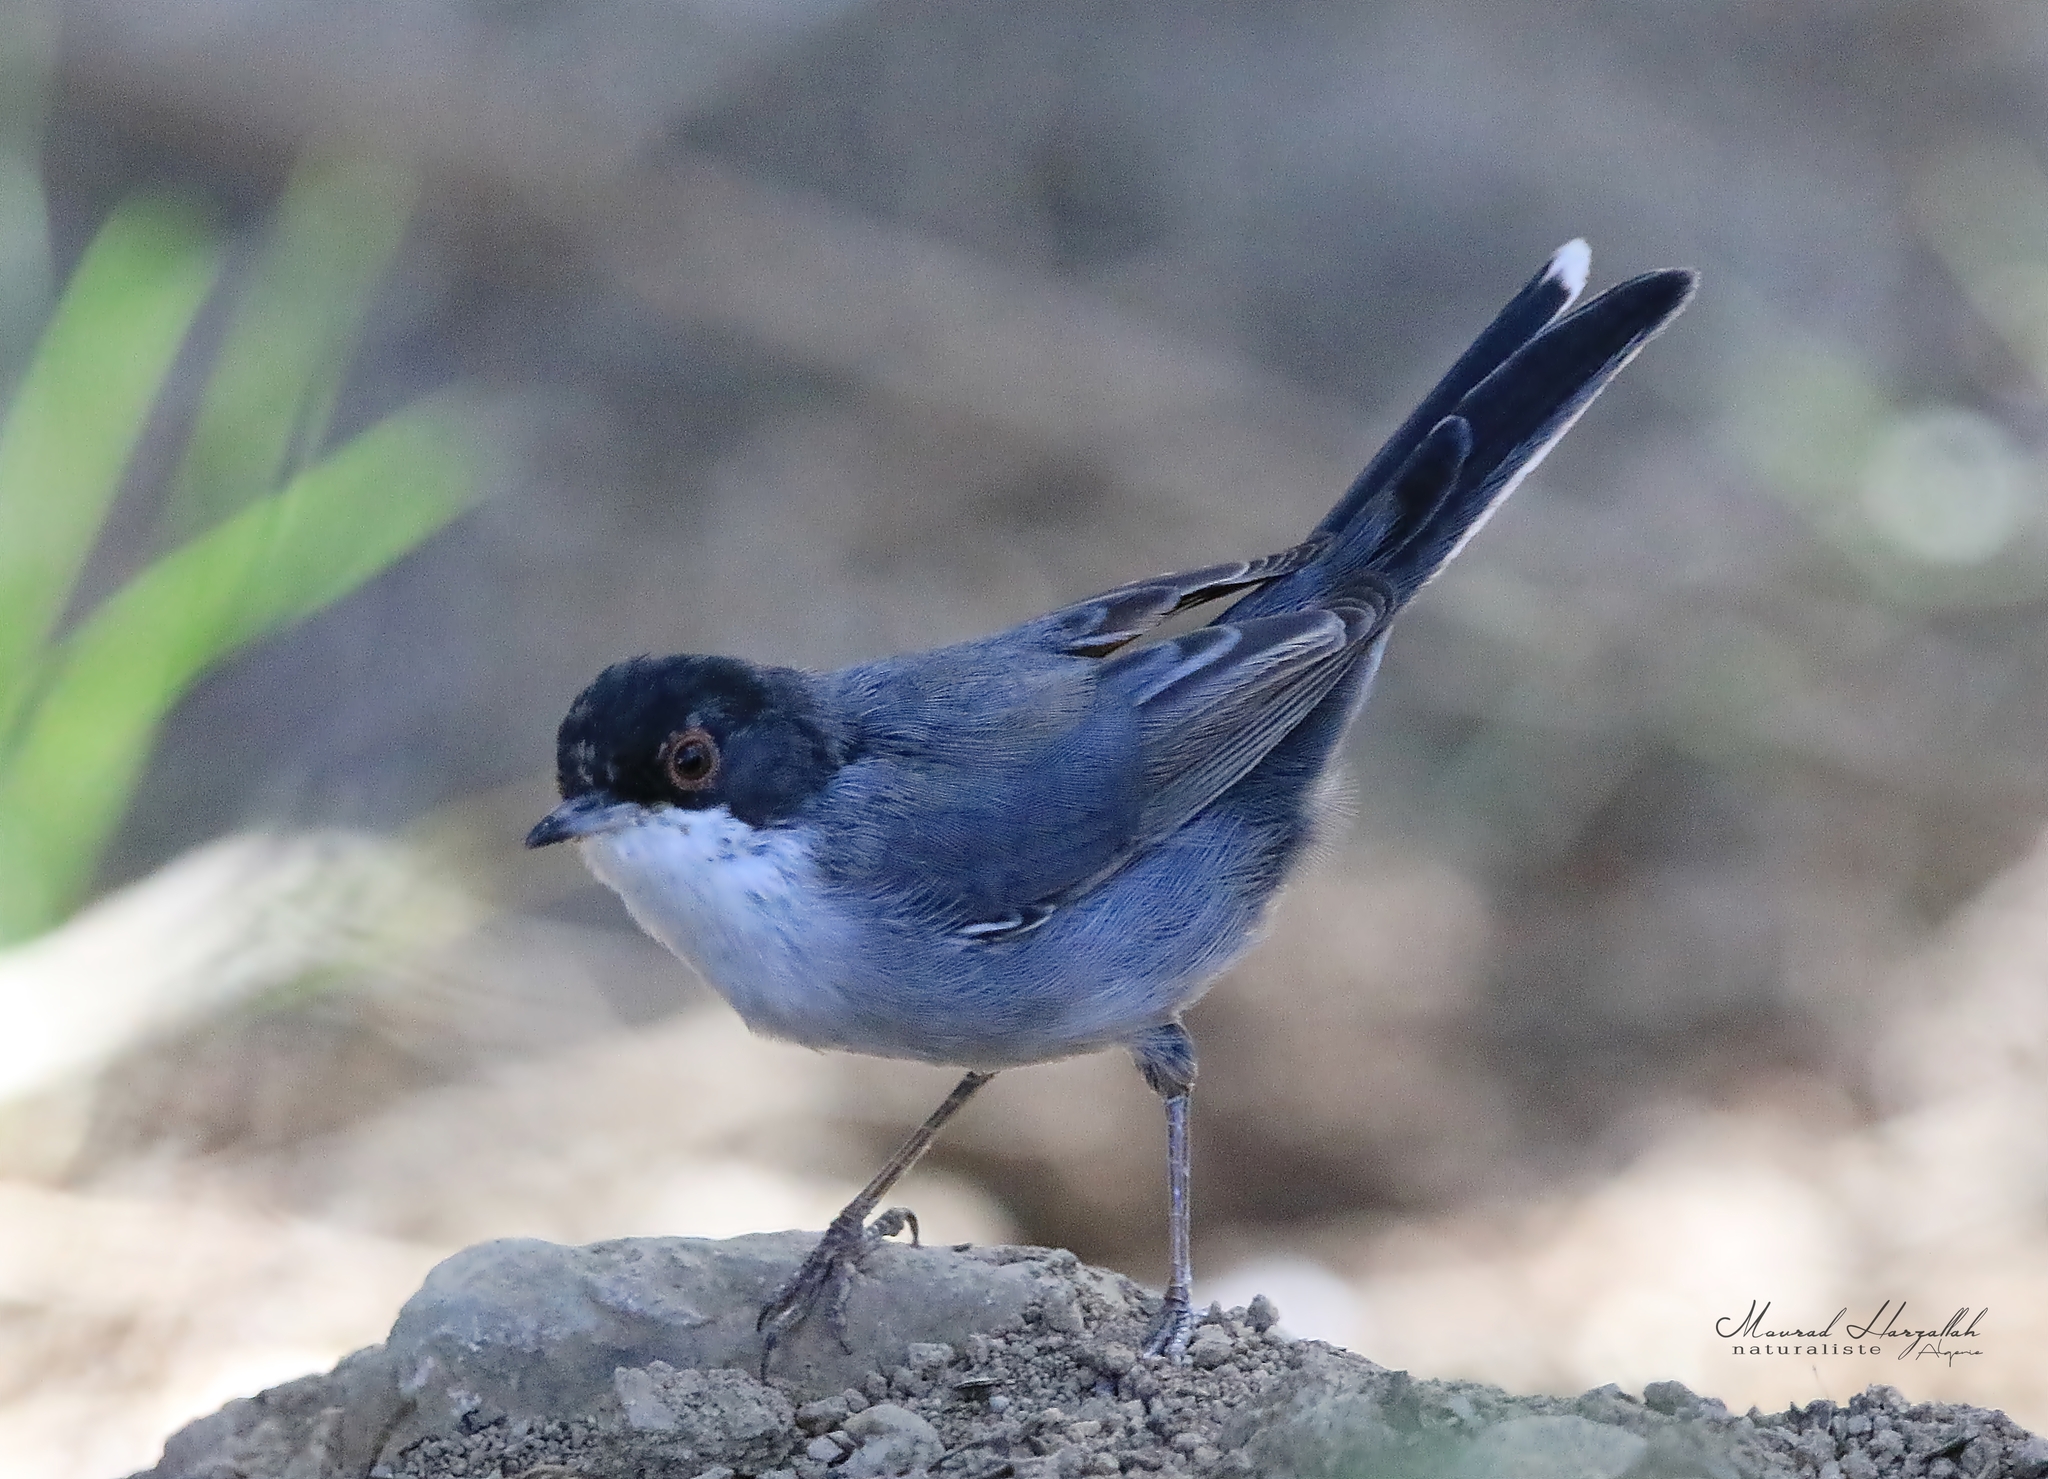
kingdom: Animalia
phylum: Chordata
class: Aves
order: Passeriformes
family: Sylviidae
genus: Curruca
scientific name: Curruca melanocephala
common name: Sardinian warbler
